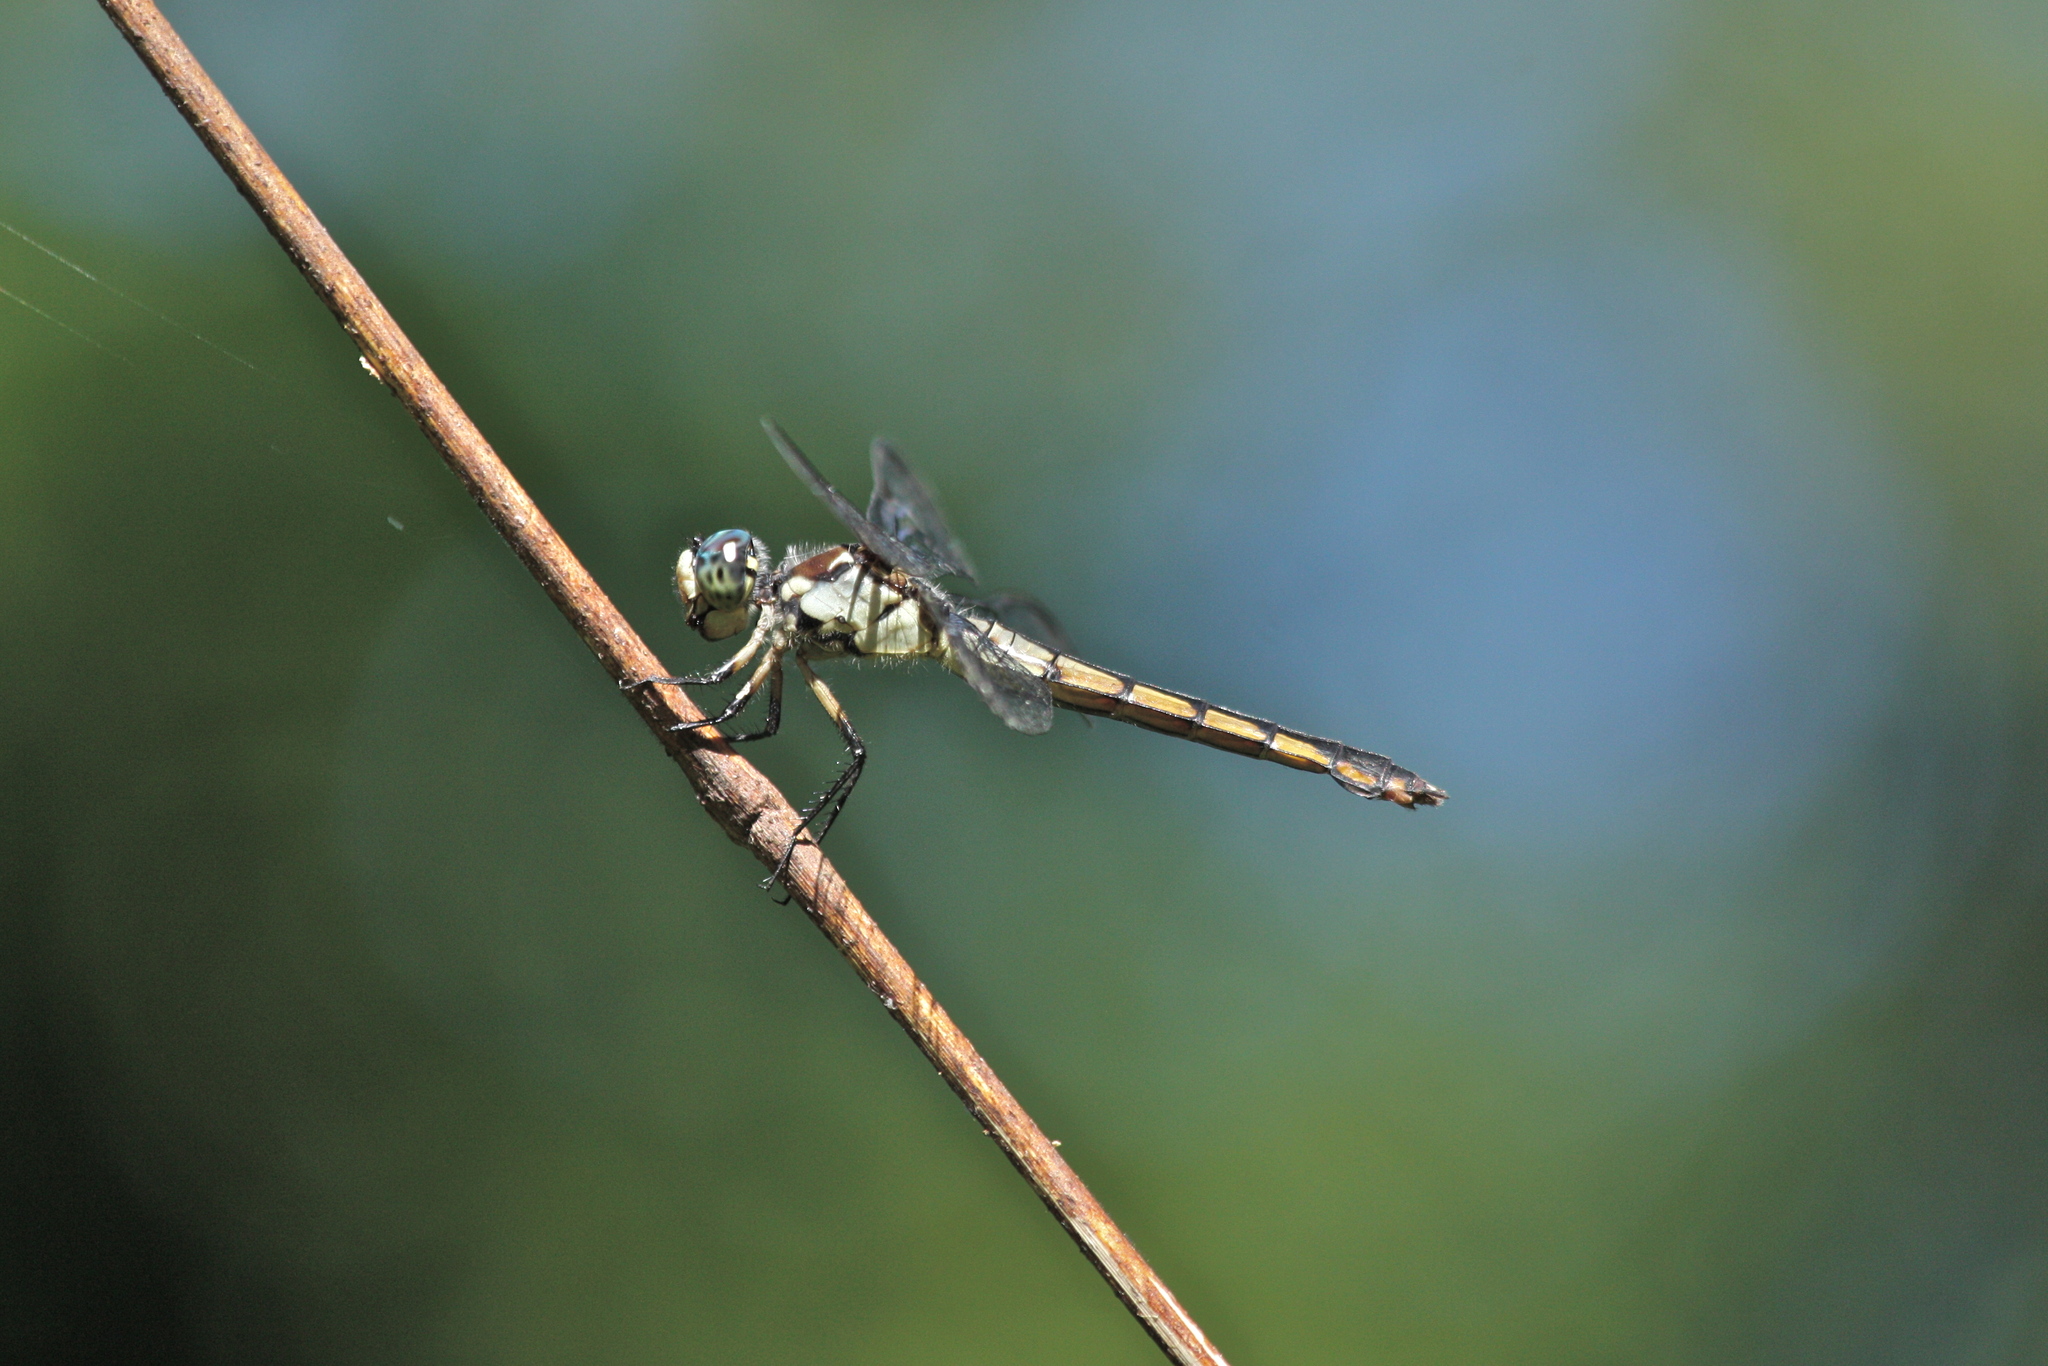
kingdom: Animalia
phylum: Arthropoda
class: Insecta
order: Odonata
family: Libellulidae
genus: Libellula
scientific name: Libellula vibrans
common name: Great blue skimmer
